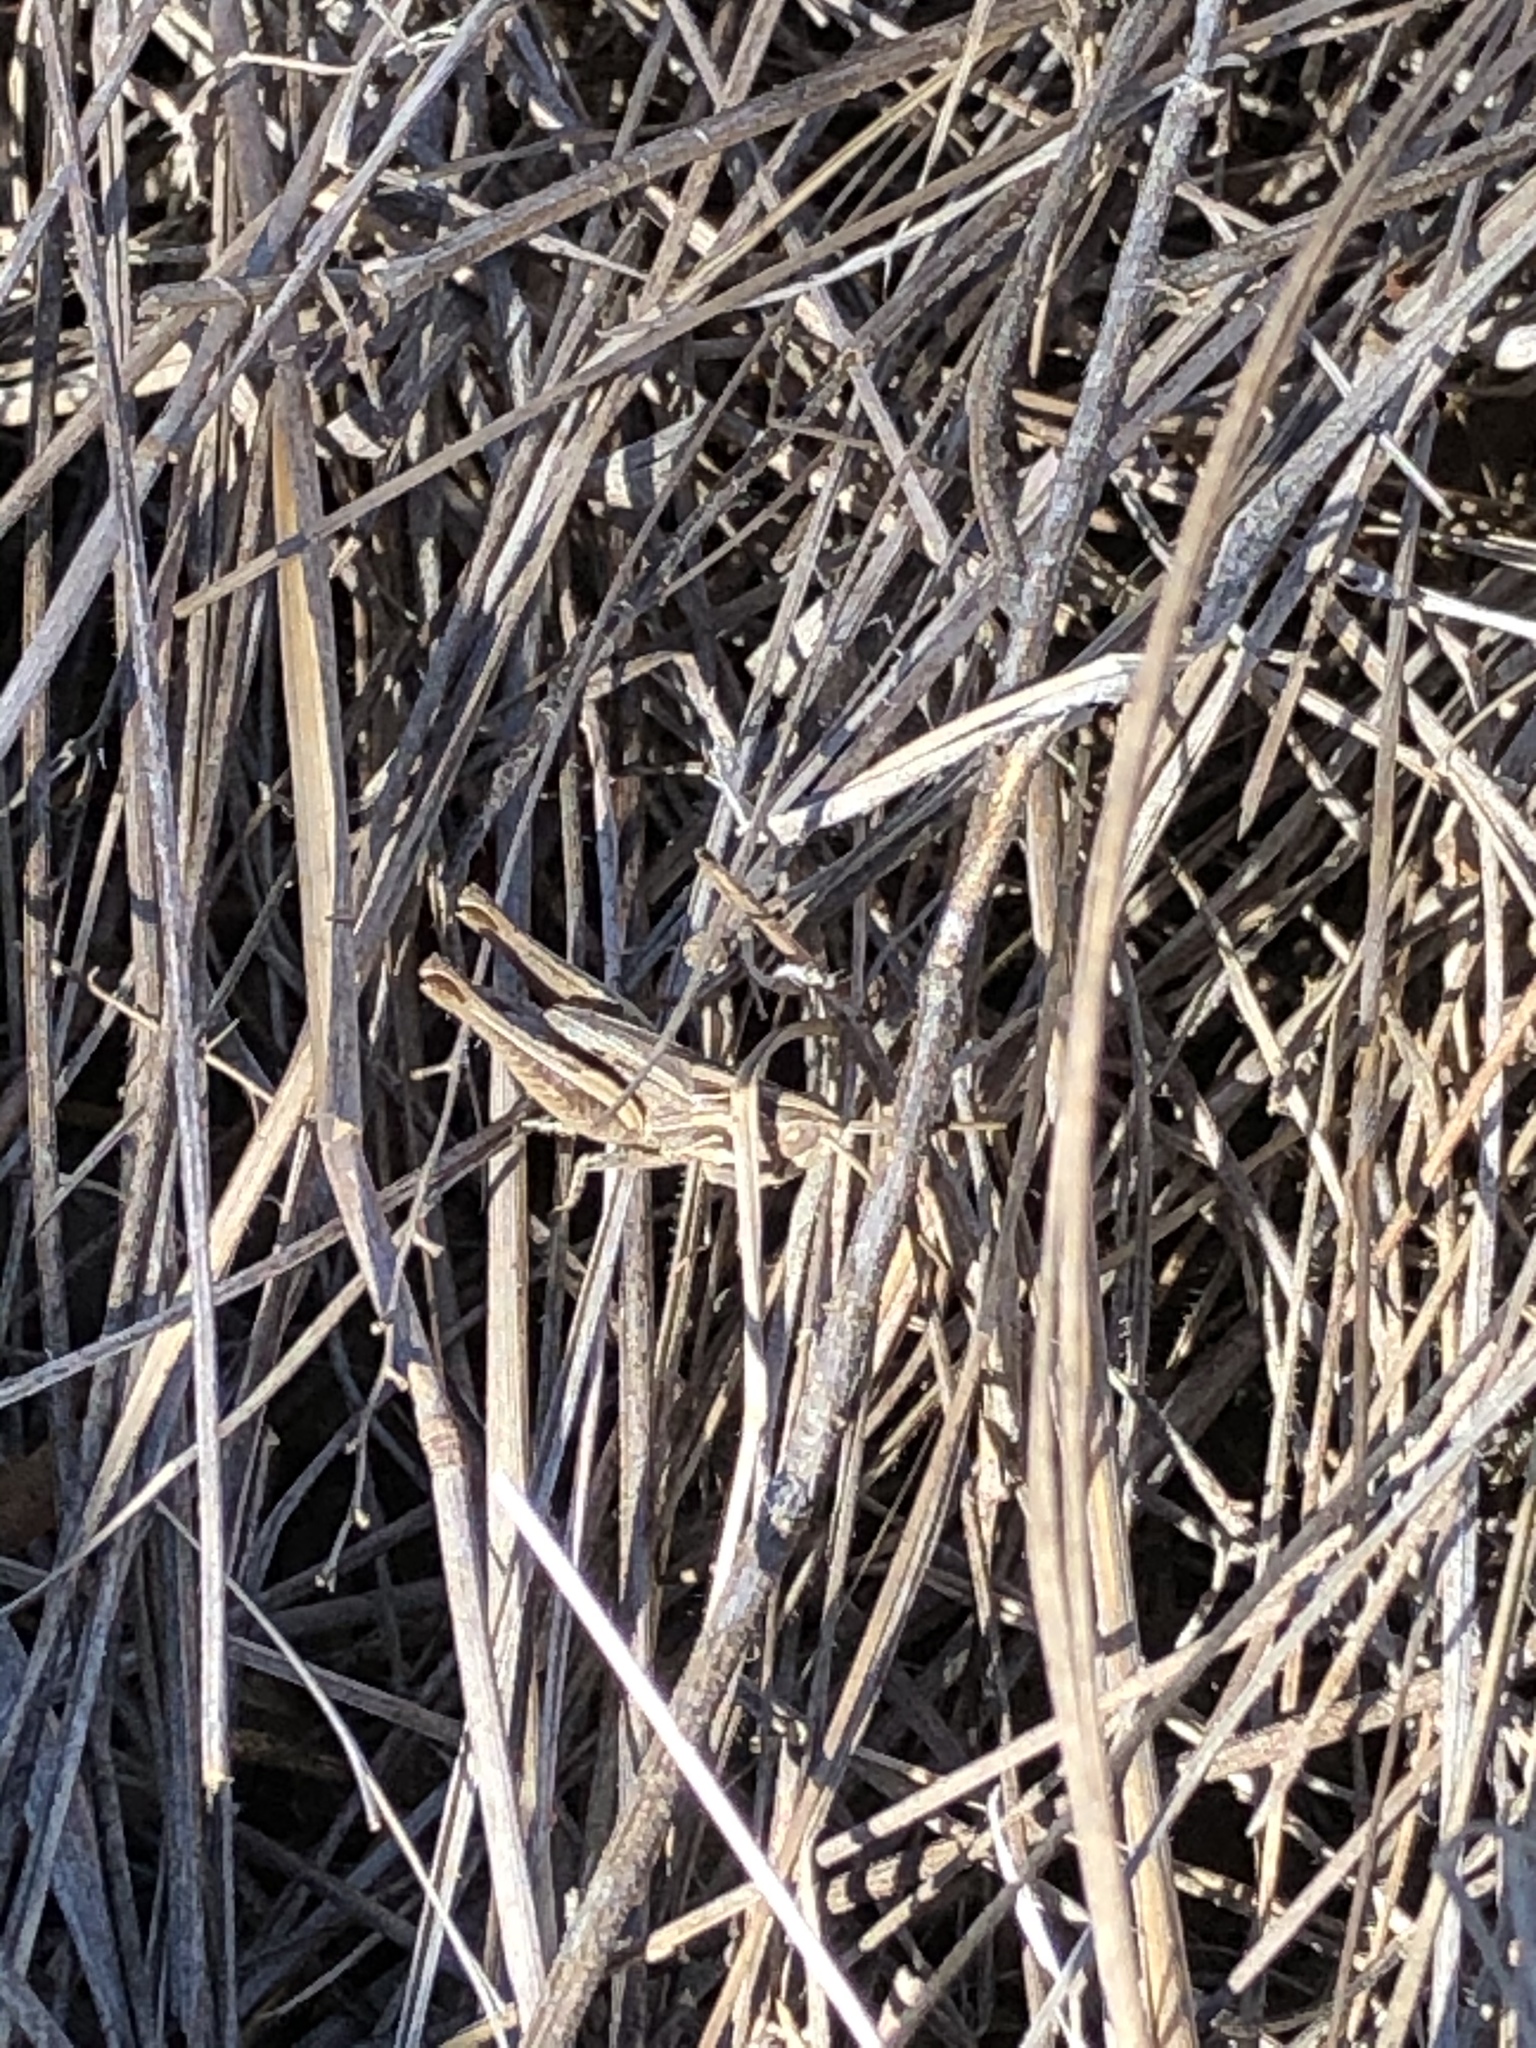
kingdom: Animalia
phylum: Arthropoda
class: Insecta
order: Orthoptera
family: Acrididae
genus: Eritettix
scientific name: Eritettix abortivus
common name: Slant-faced grasshopper
